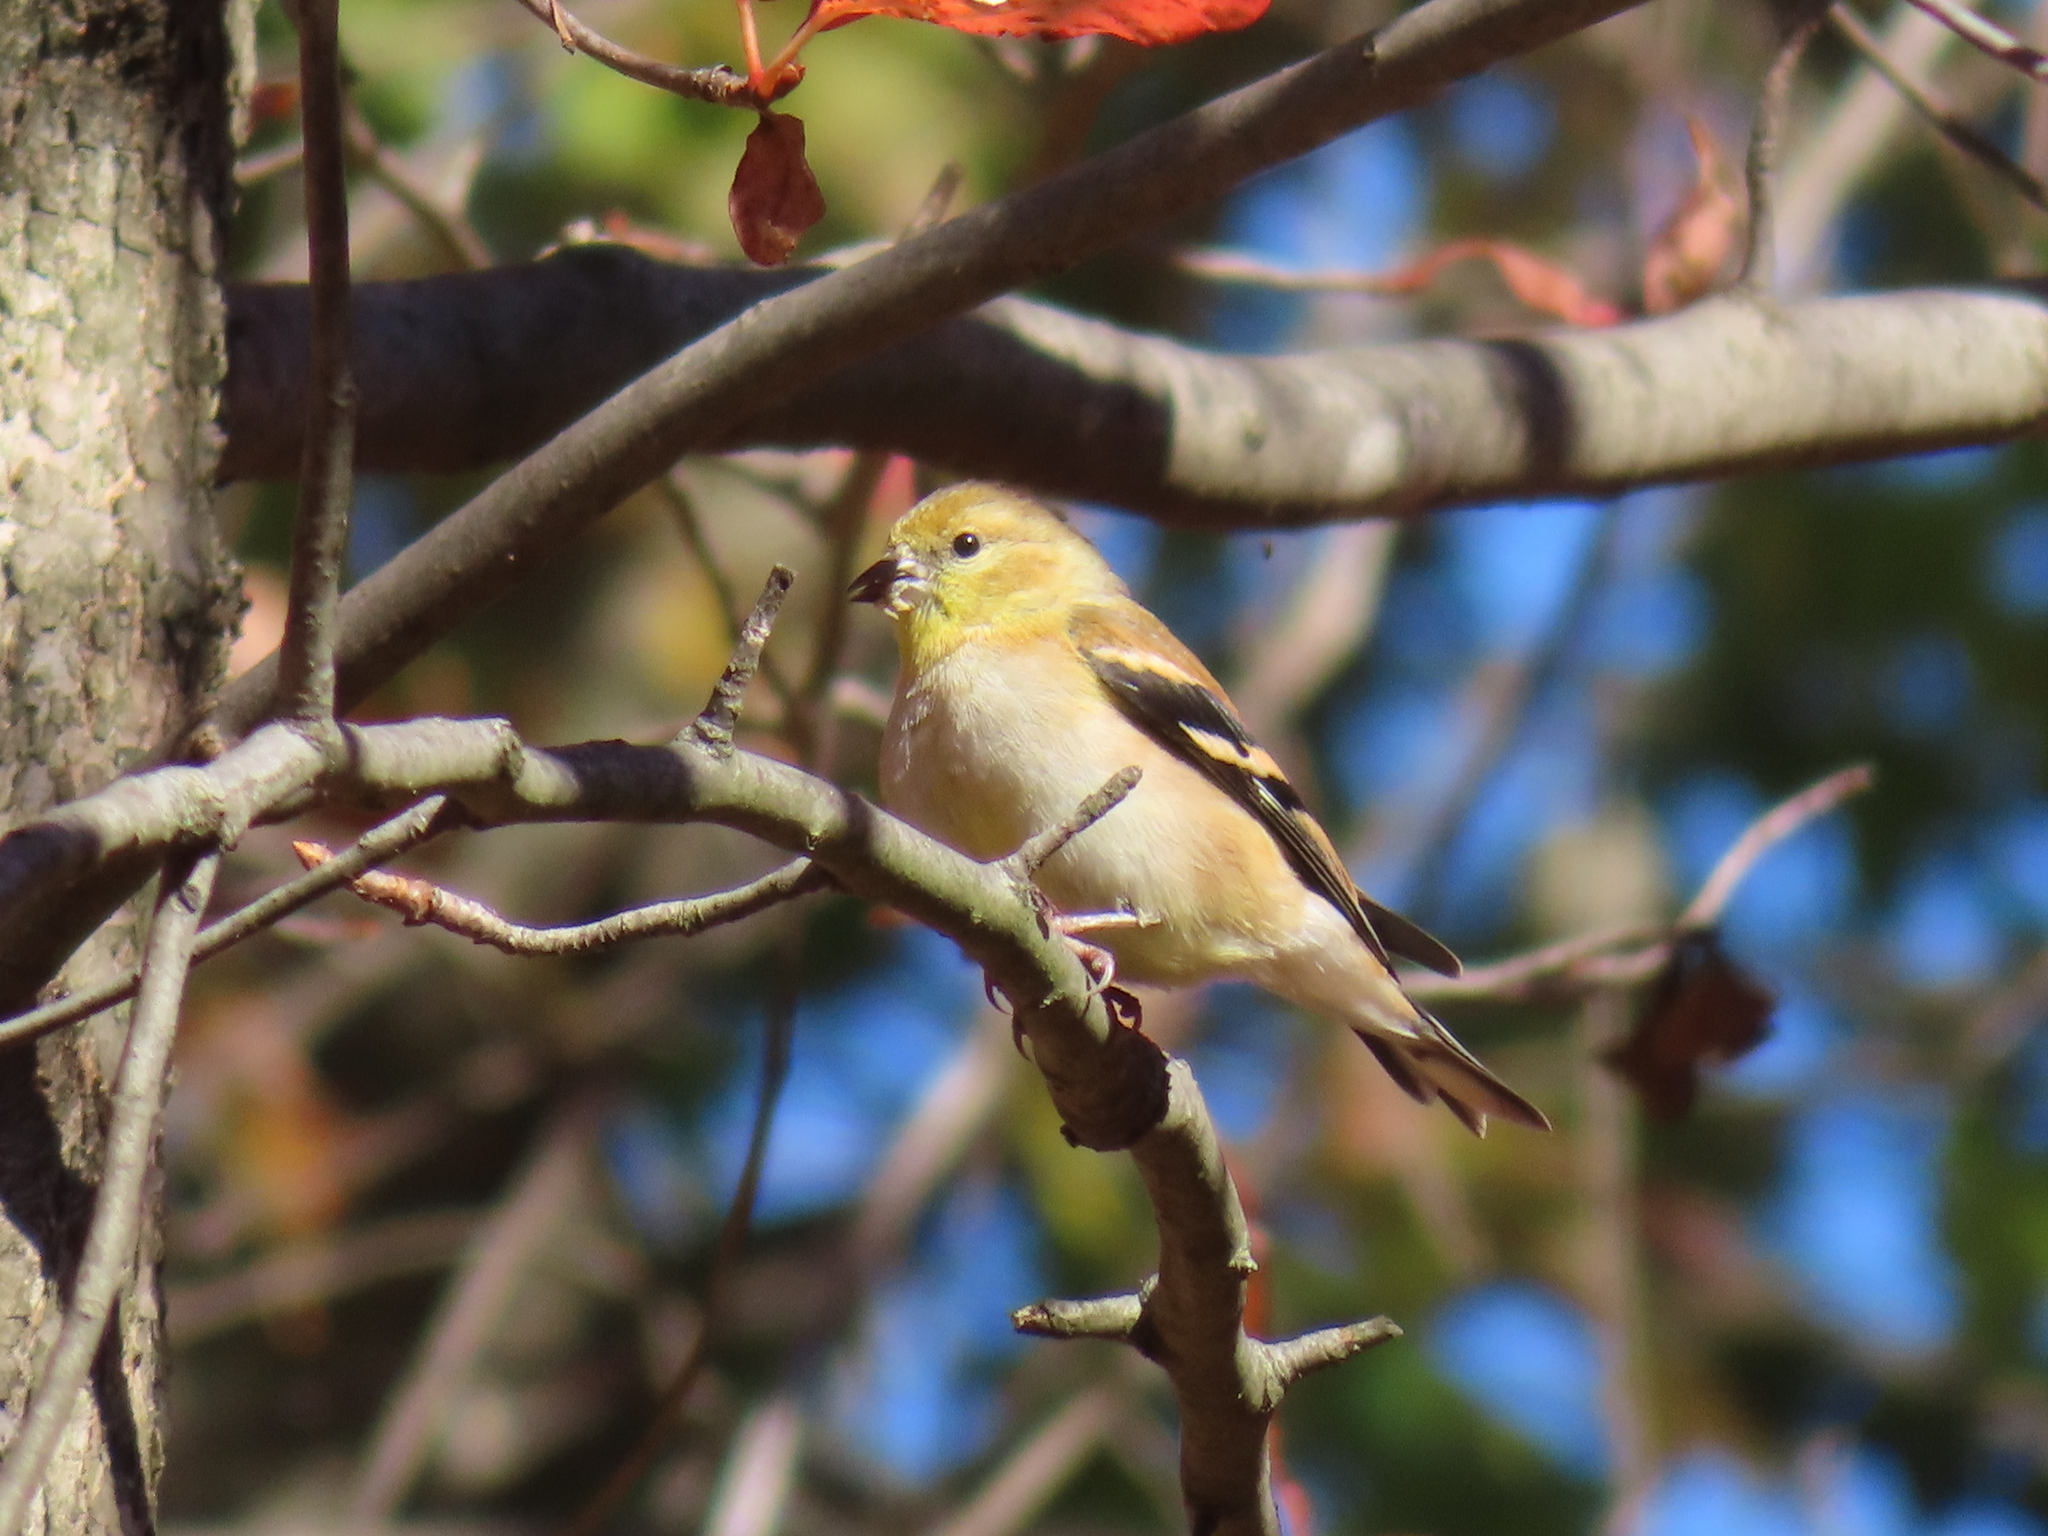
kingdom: Animalia
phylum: Chordata
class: Aves
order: Passeriformes
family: Fringillidae
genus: Spinus
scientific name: Spinus tristis
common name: American goldfinch
